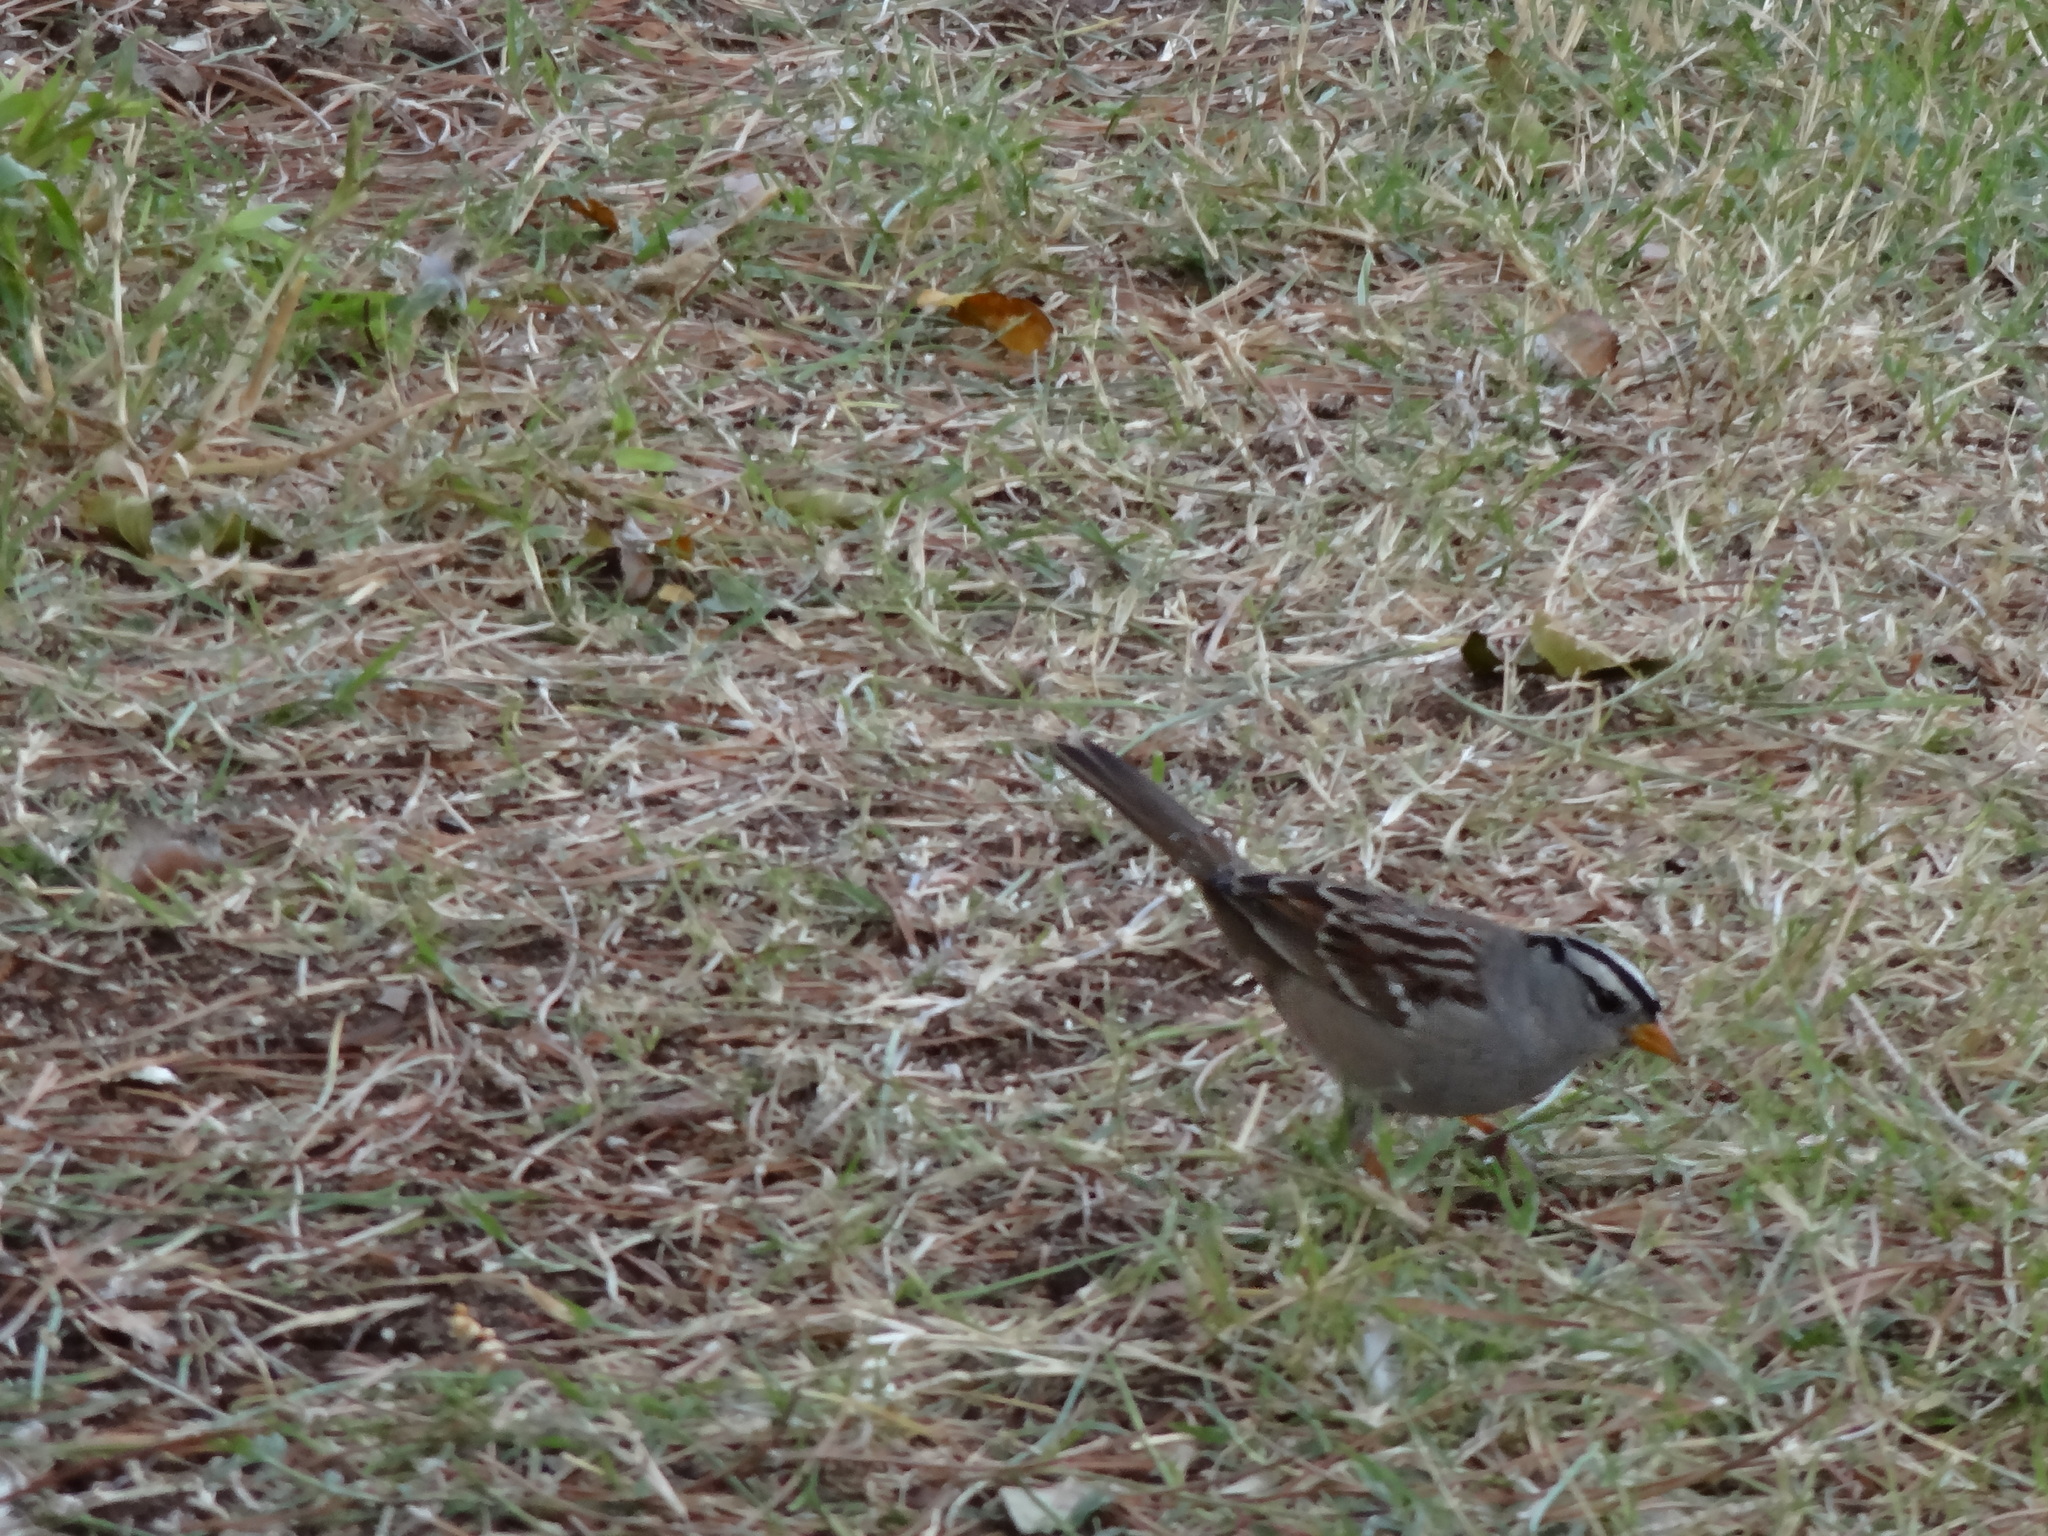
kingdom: Animalia
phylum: Chordata
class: Aves
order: Passeriformes
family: Passerellidae
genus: Zonotrichia
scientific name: Zonotrichia leucophrys
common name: White-crowned sparrow
